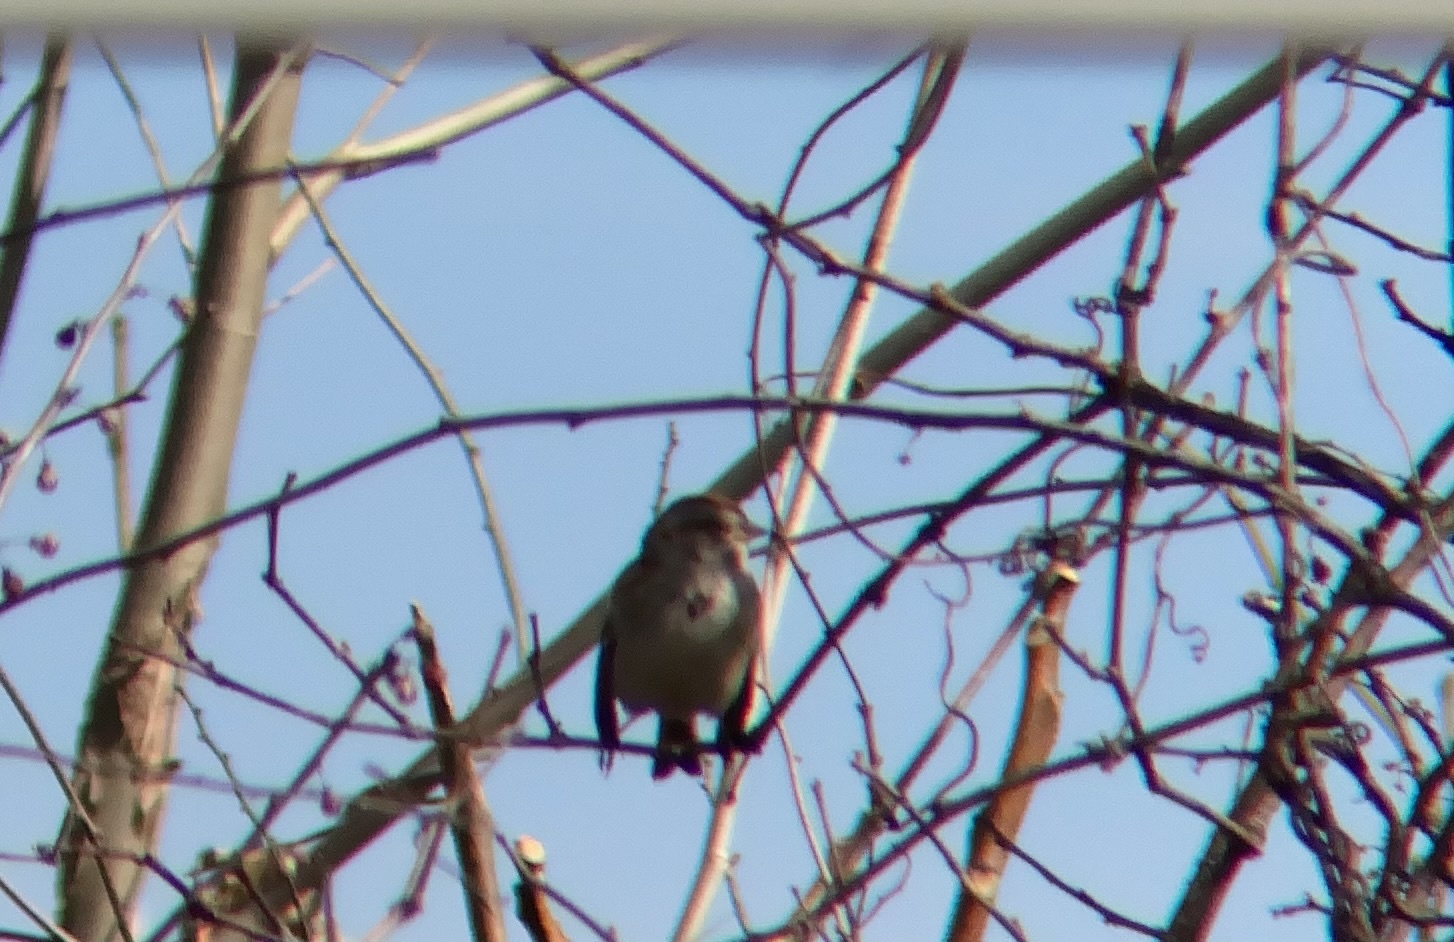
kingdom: Animalia
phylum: Chordata
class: Aves
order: Passeriformes
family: Passerellidae
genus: Spizelloides
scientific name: Spizelloides arborea
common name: American tree sparrow
